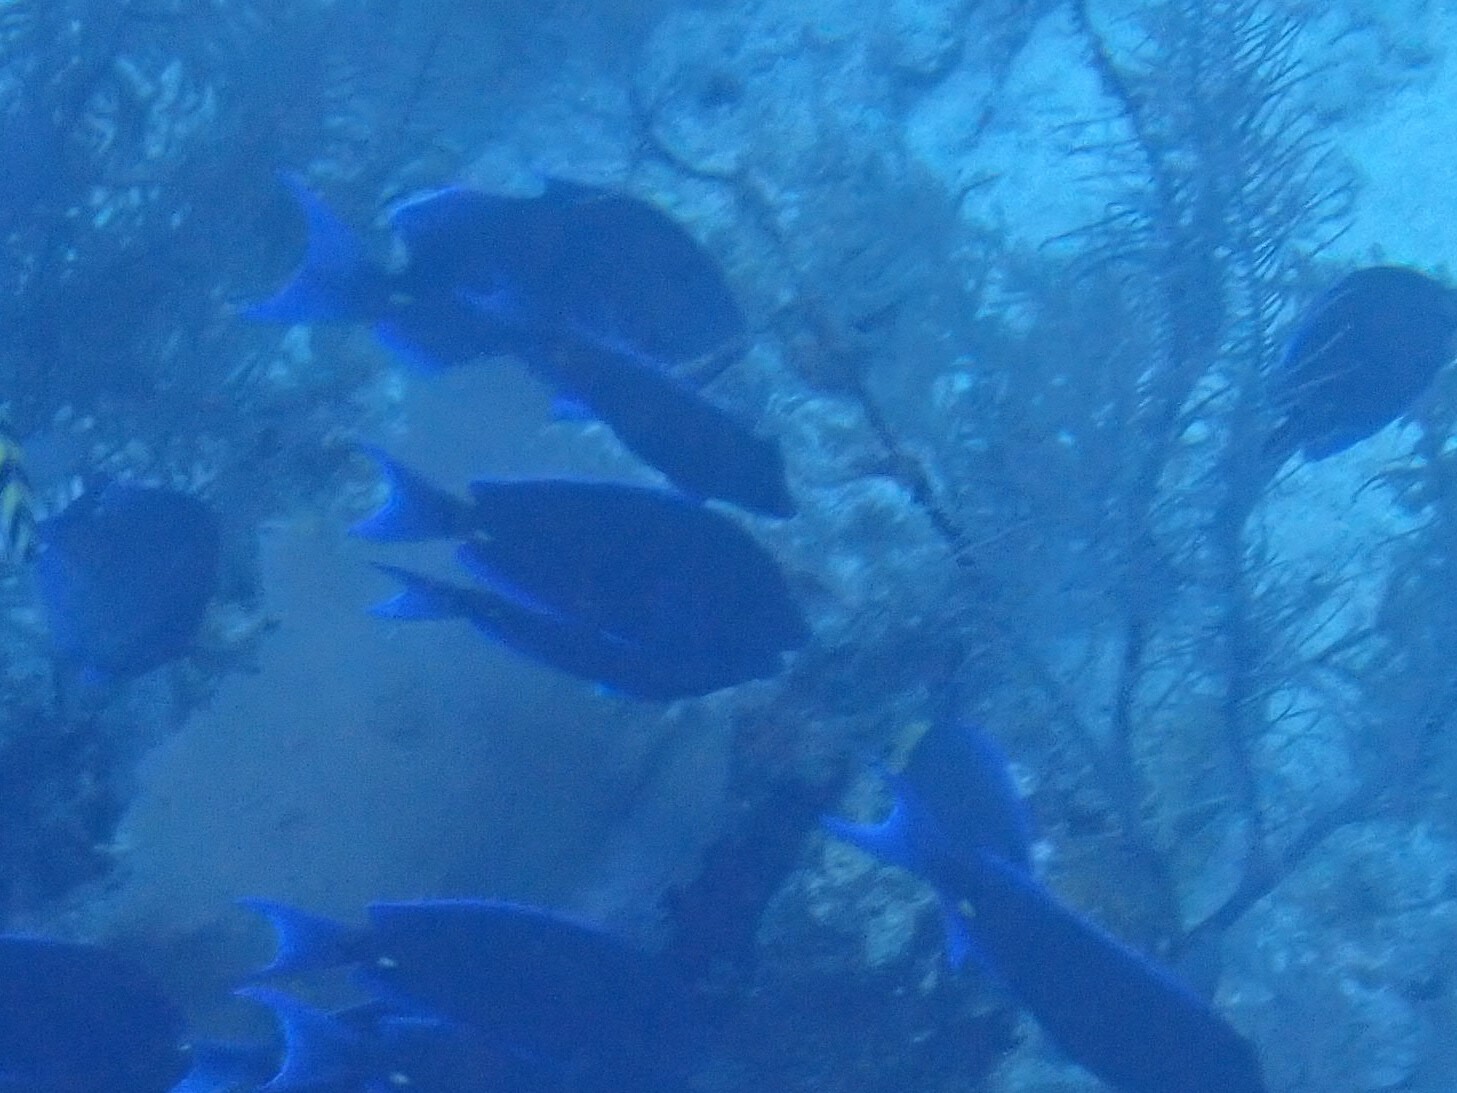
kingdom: Animalia
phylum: Chordata
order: Perciformes
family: Acanthuridae
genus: Acanthurus
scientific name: Acanthurus coeruleus
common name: Blue tang
